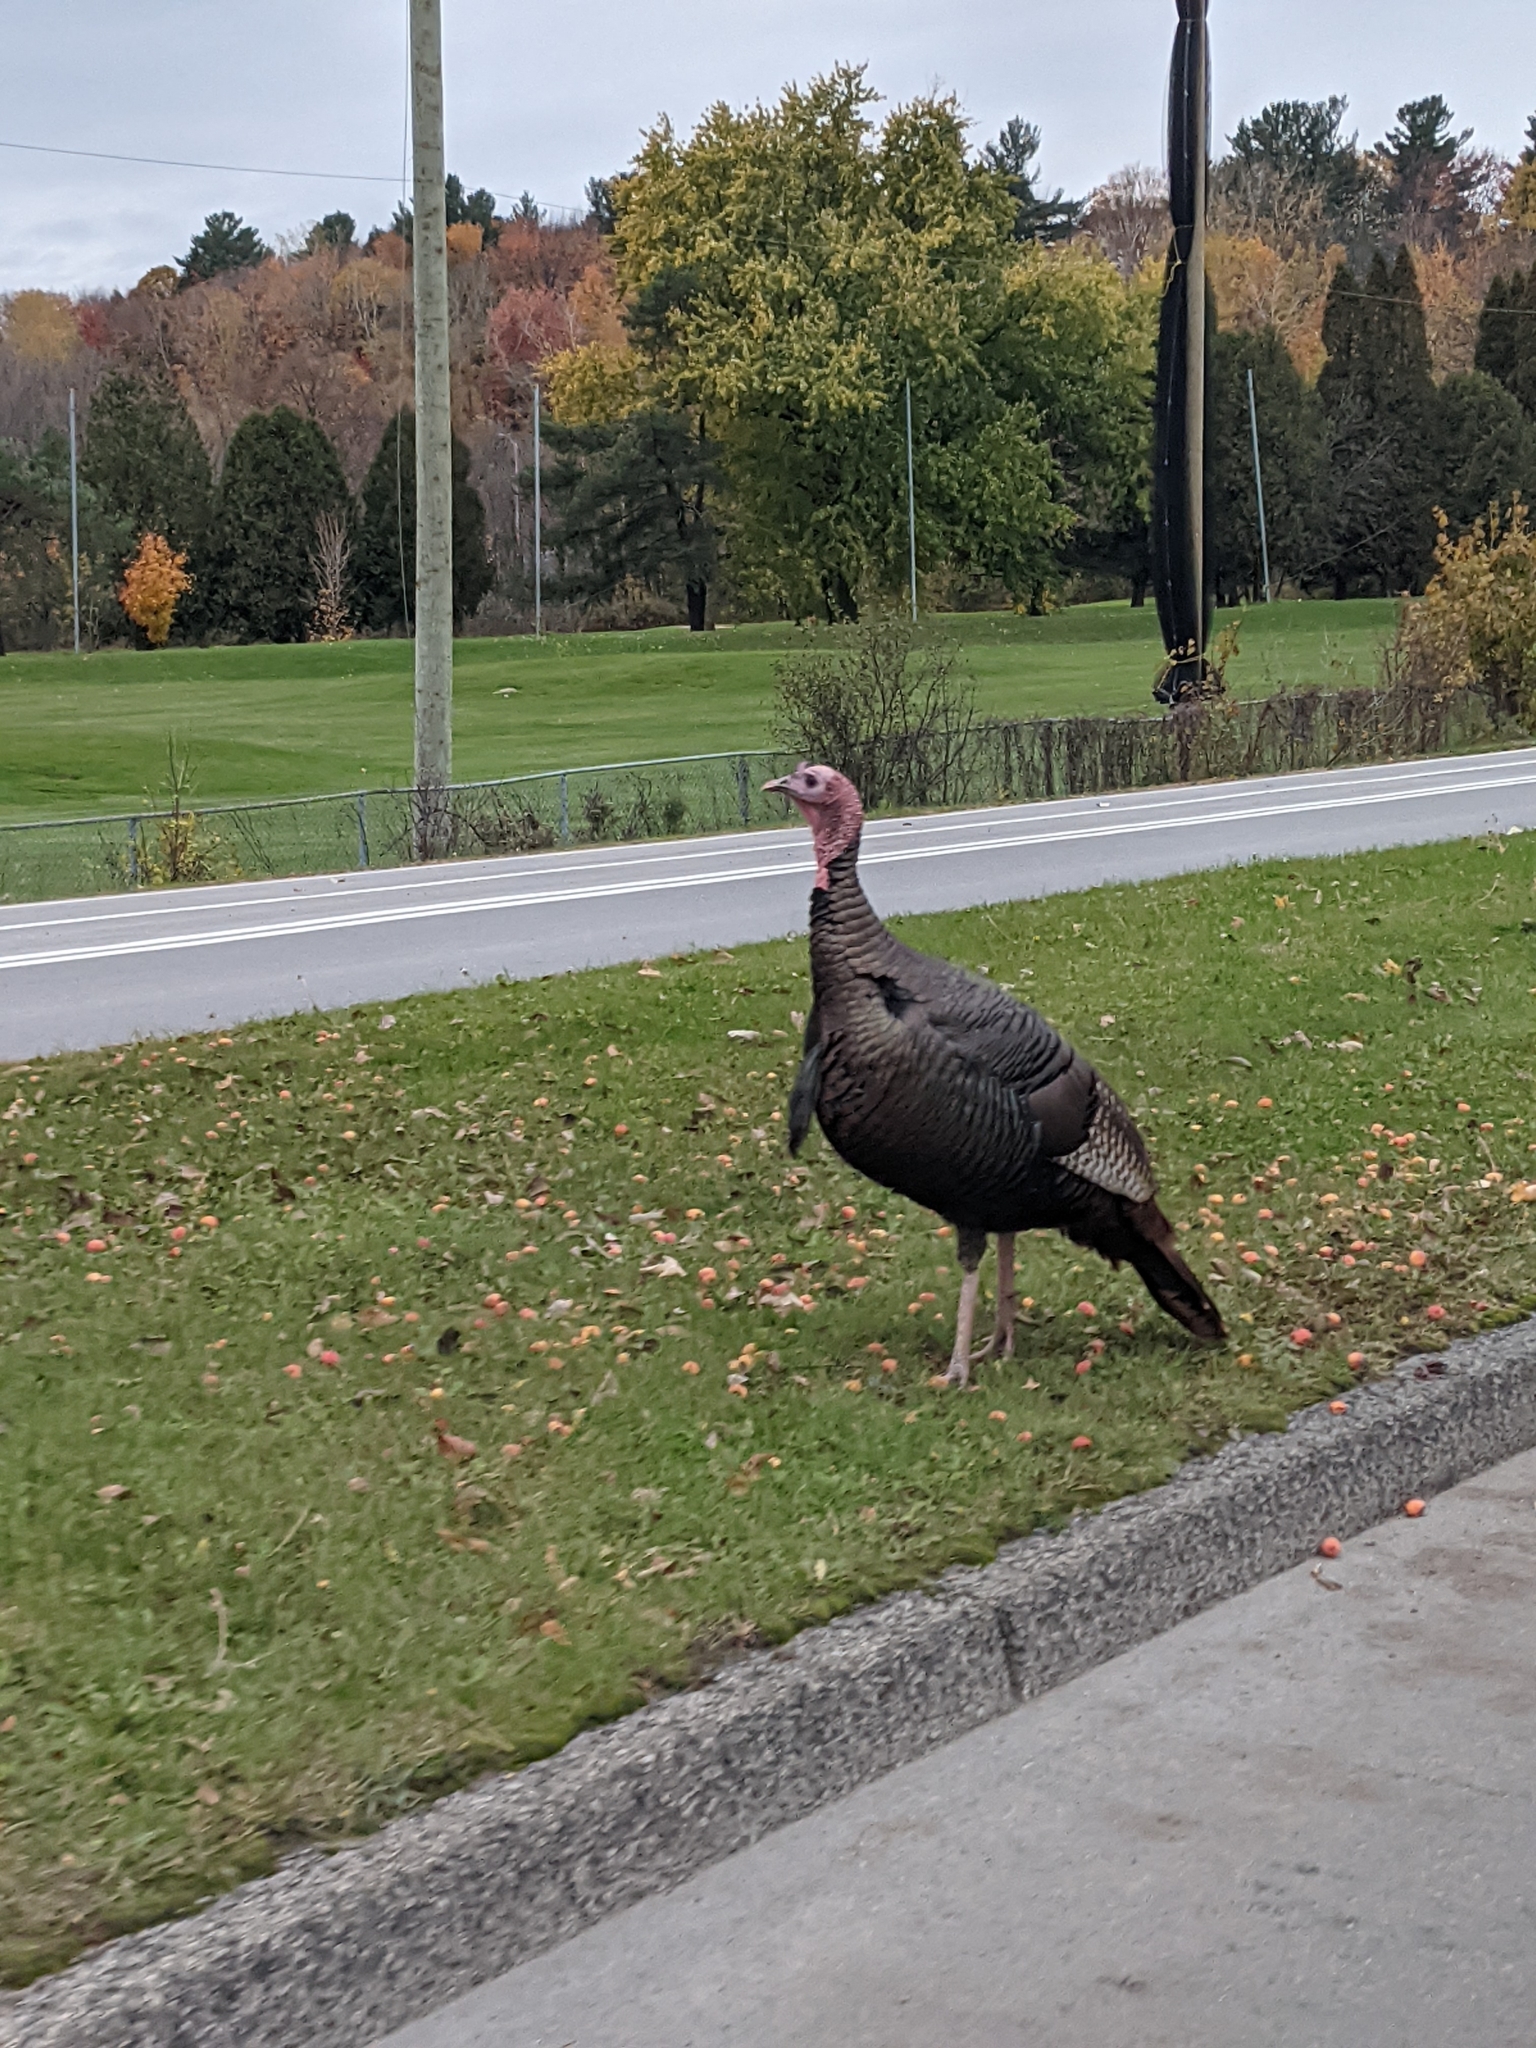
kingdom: Animalia
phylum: Chordata
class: Aves
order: Galliformes
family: Phasianidae
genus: Meleagris
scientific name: Meleagris gallopavo
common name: Wild turkey
